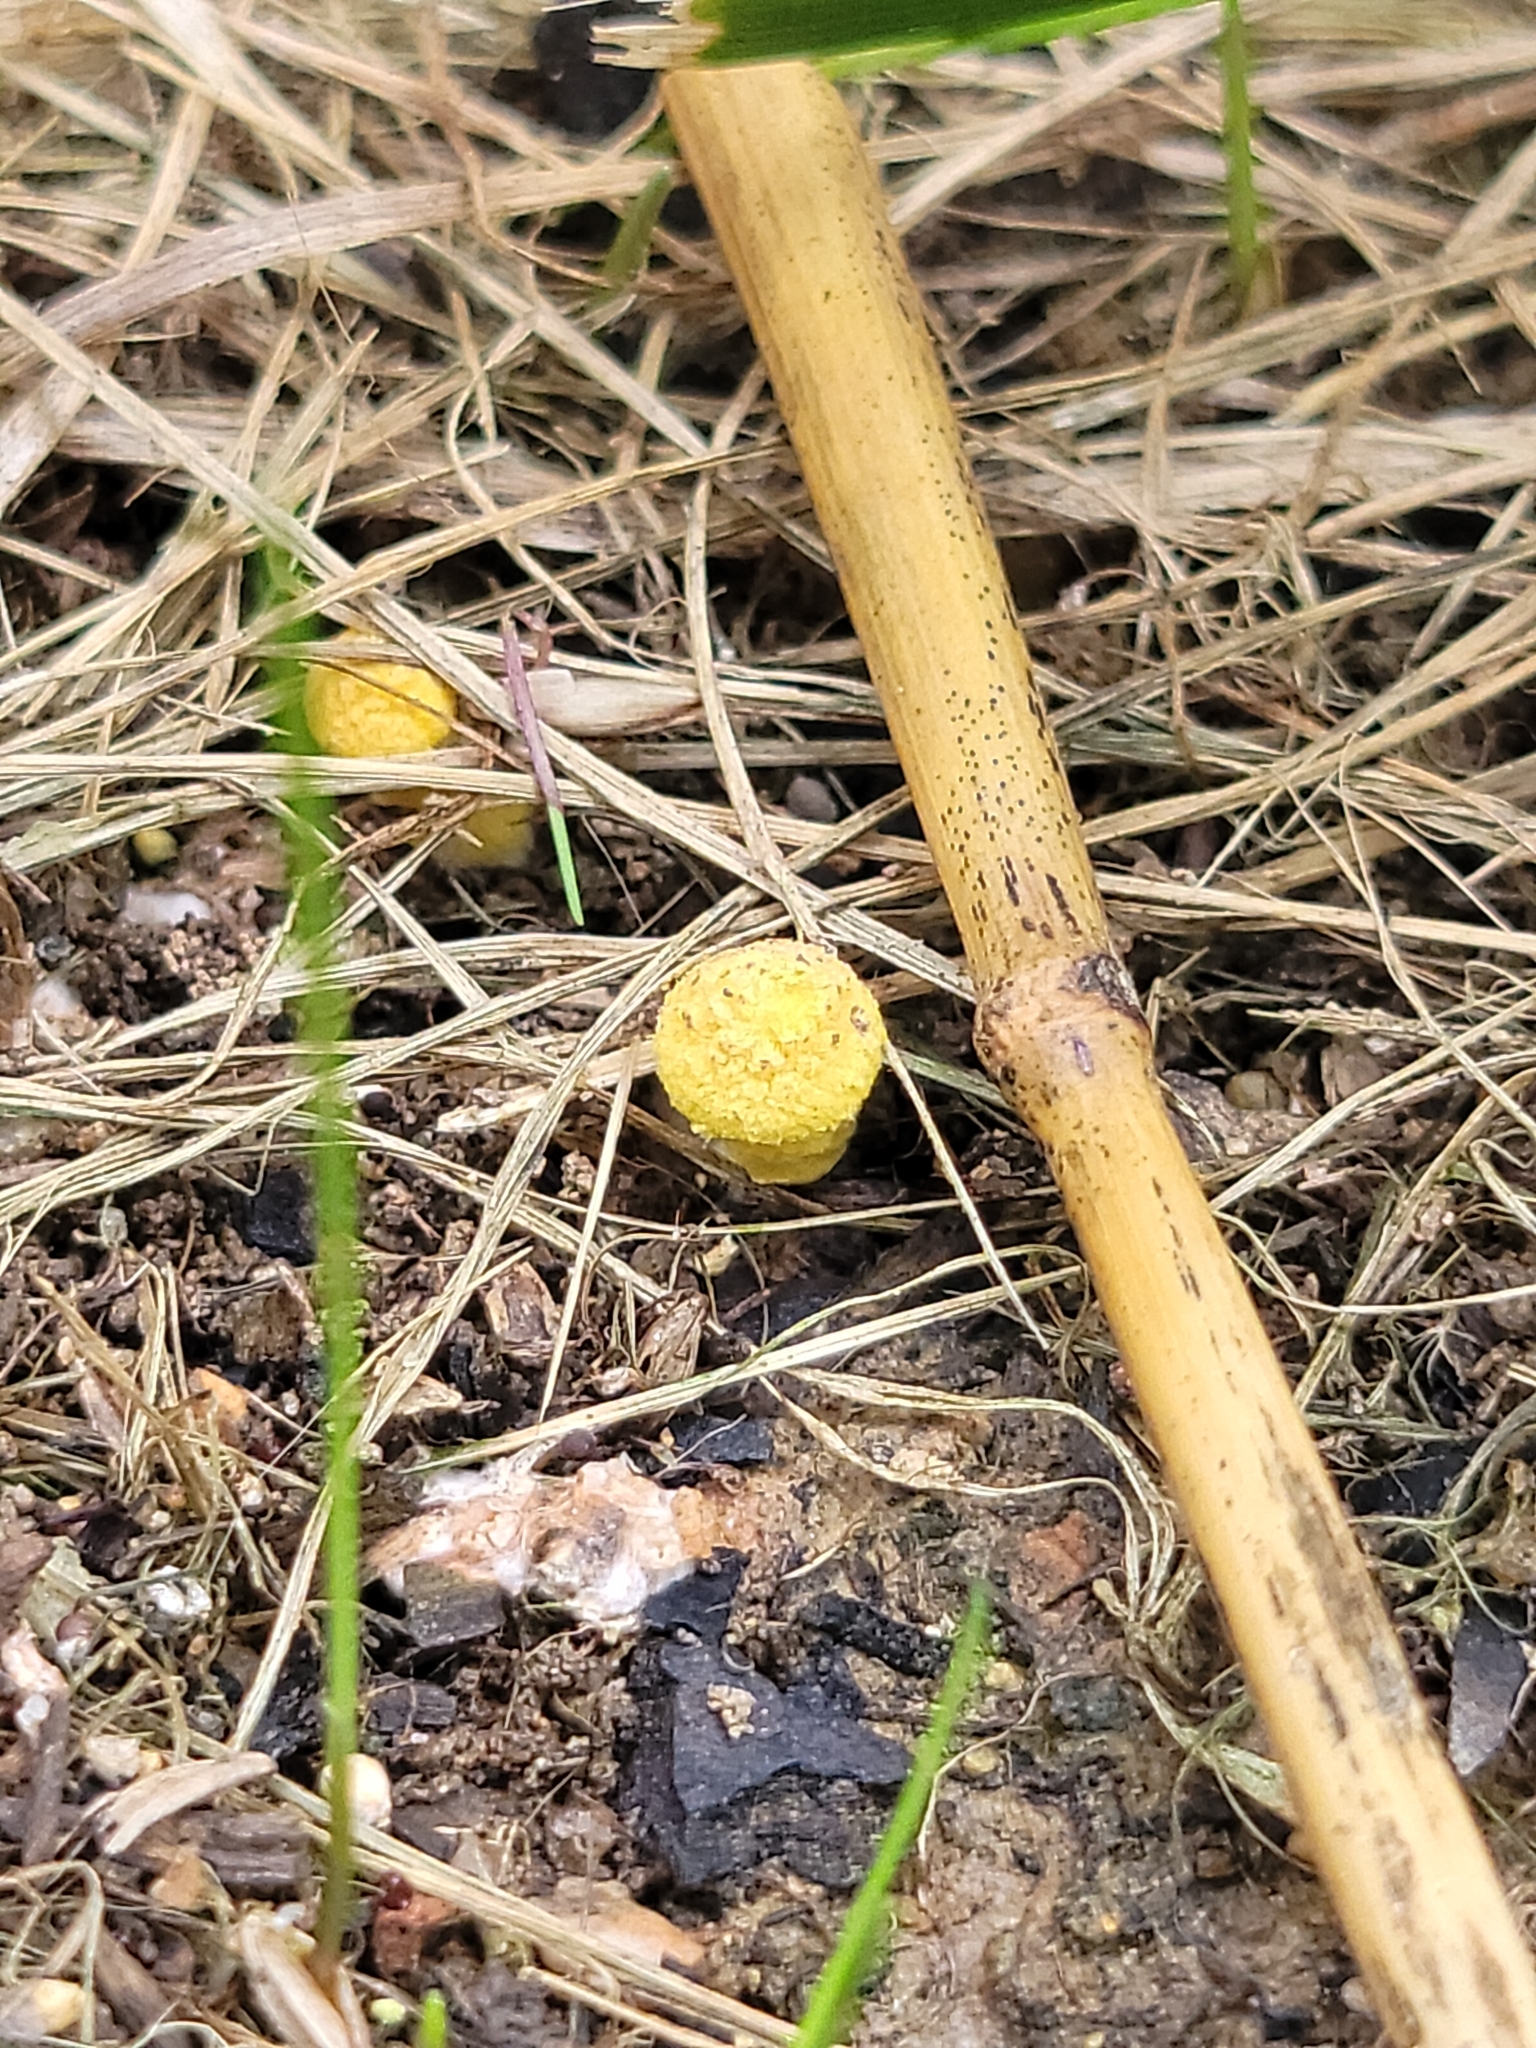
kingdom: Fungi
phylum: Basidiomycota
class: Agaricomycetes
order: Agaricales
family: Agaricaceae
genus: Leucocoprinus
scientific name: Leucocoprinus birnbaumii
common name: Plantpot dapperling
